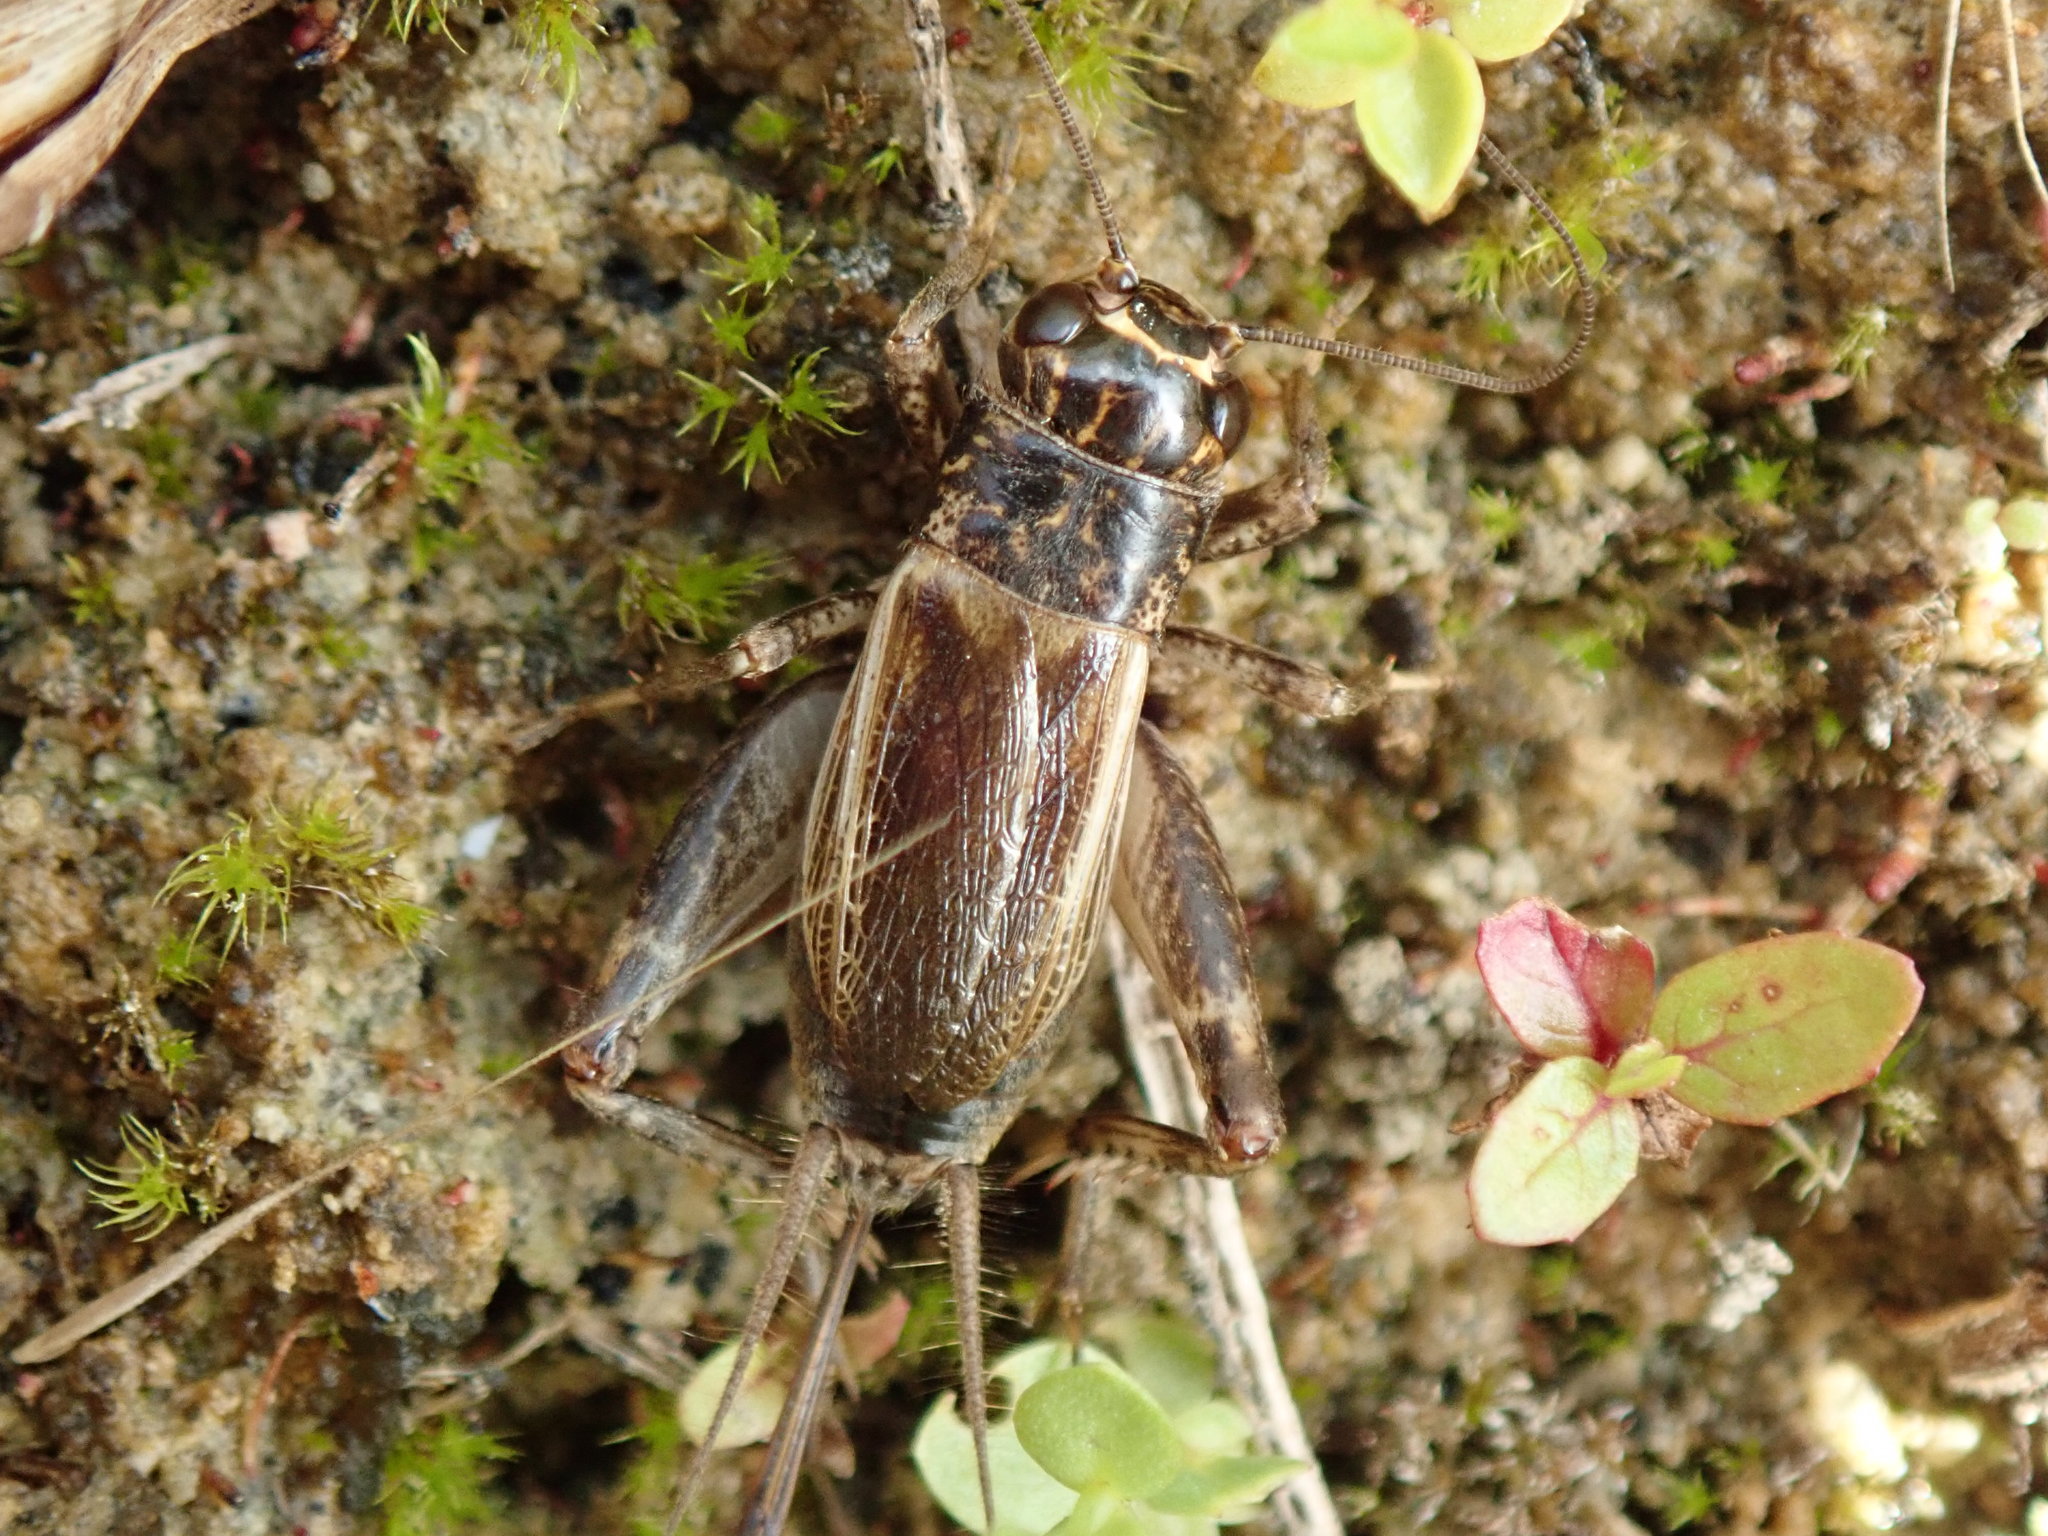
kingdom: Animalia
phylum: Arthropoda
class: Insecta
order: Orthoptera
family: Gryllidae
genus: Eumodicogryllus
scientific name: Eumodicogryllus bordigalensis
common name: Bordeaux cricket
